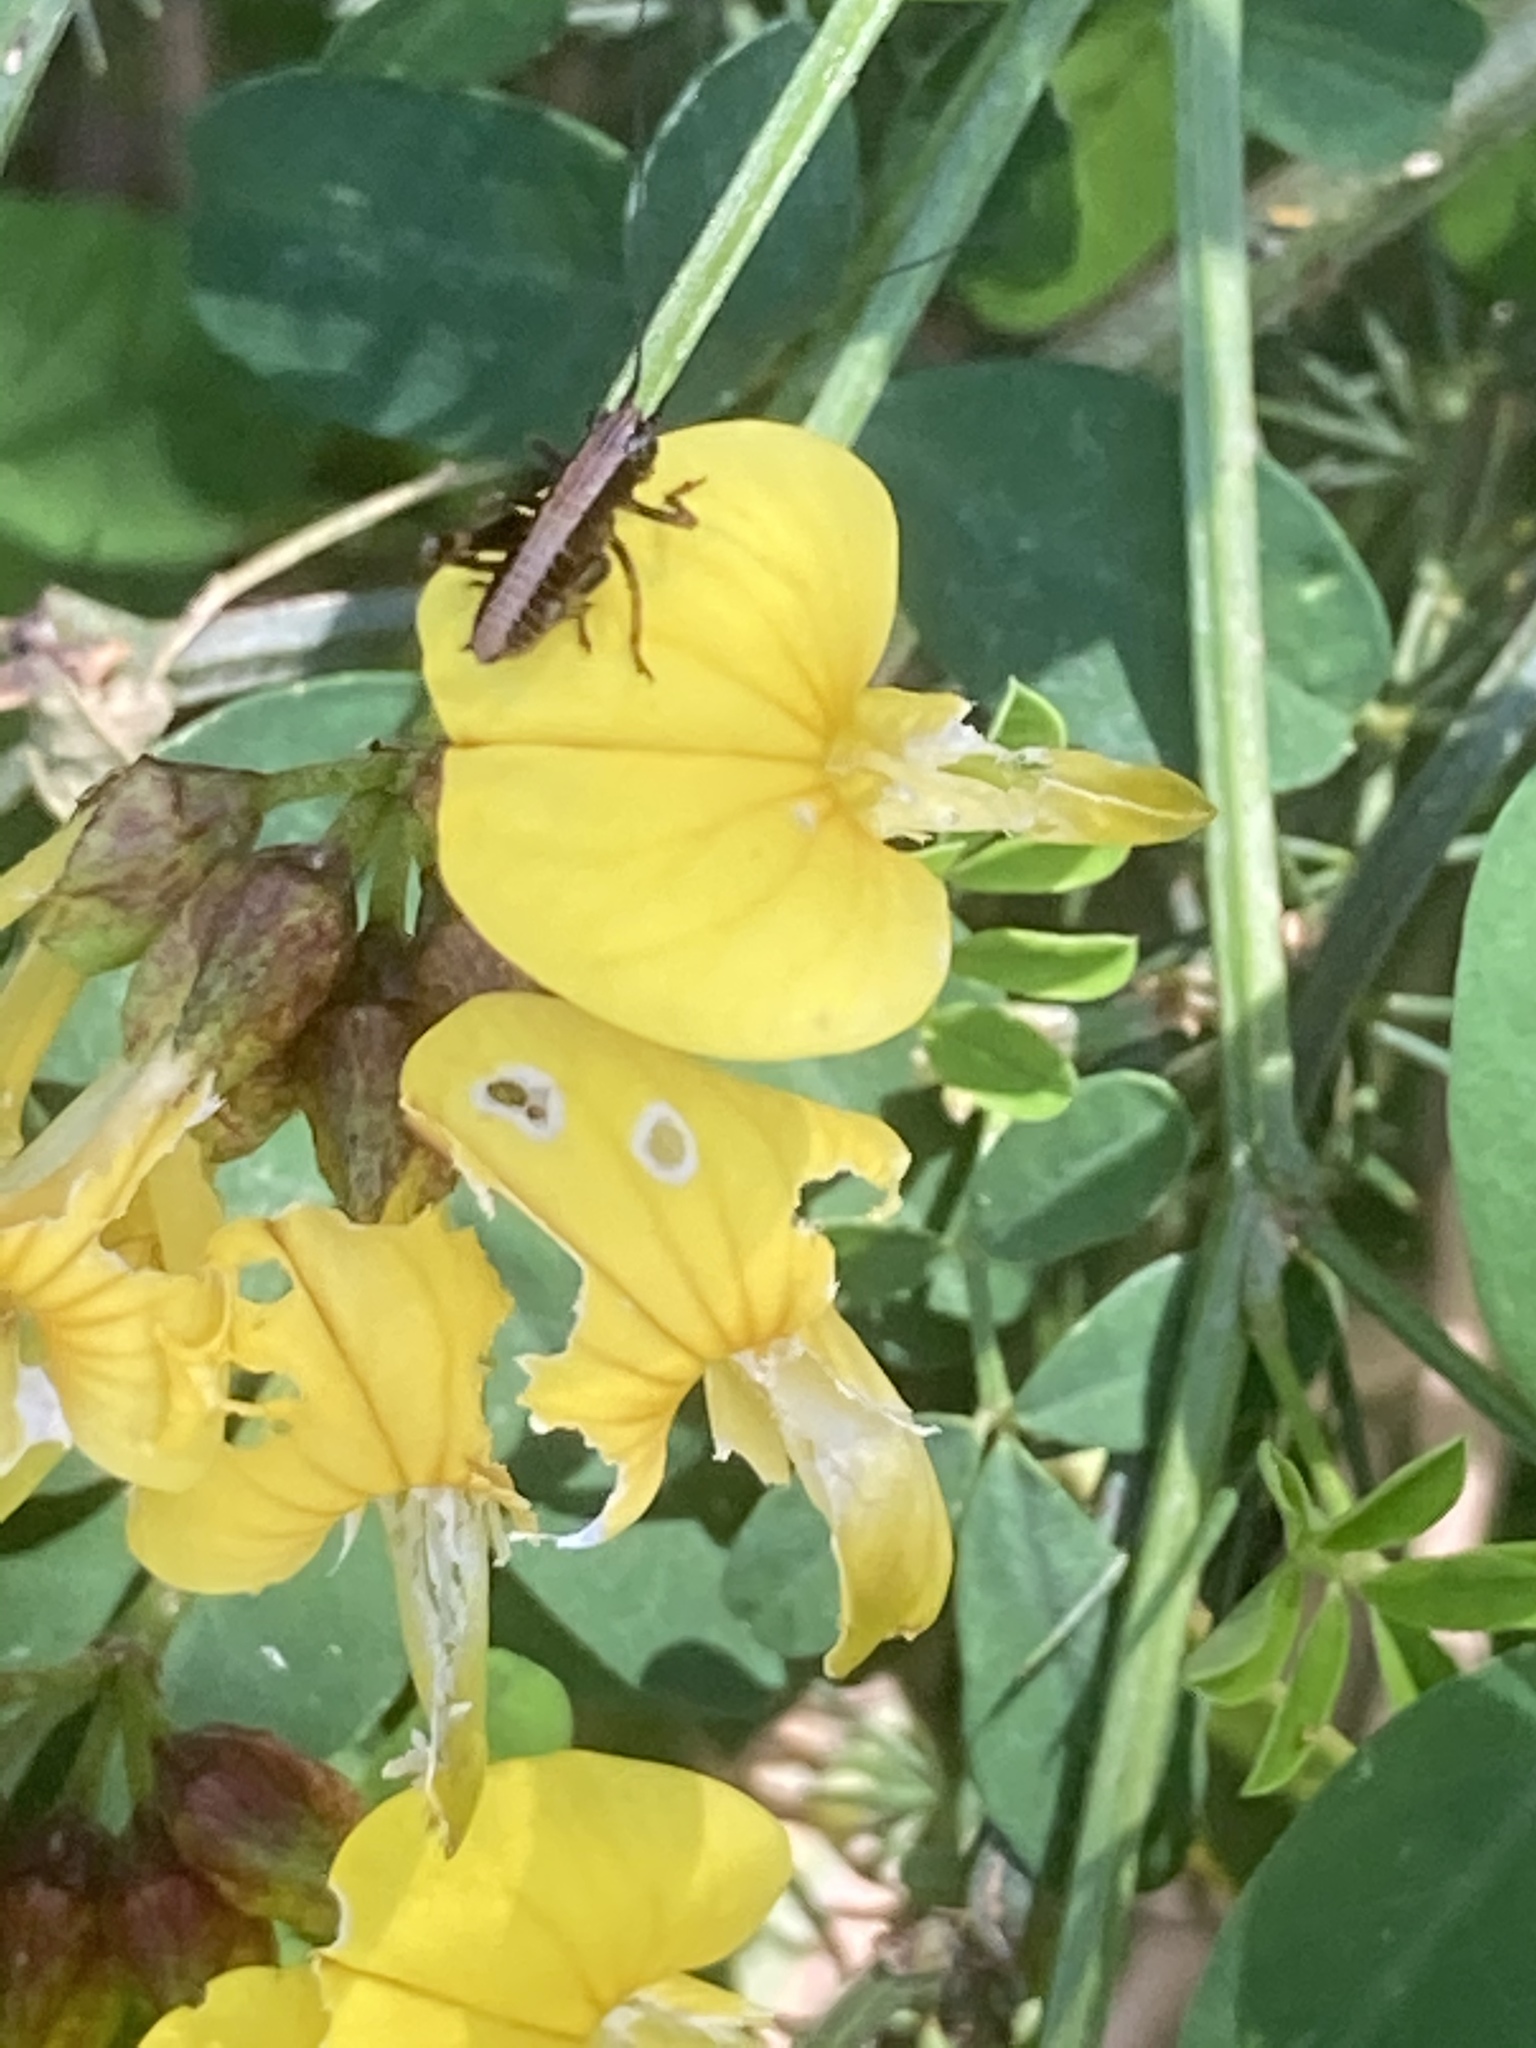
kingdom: Plantae
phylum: Tracheophyta
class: Magnoliopsida
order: Fabales
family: Fabaceae
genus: Hippocrepis
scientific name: Hippocrepis emerus
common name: Scorpion senna
